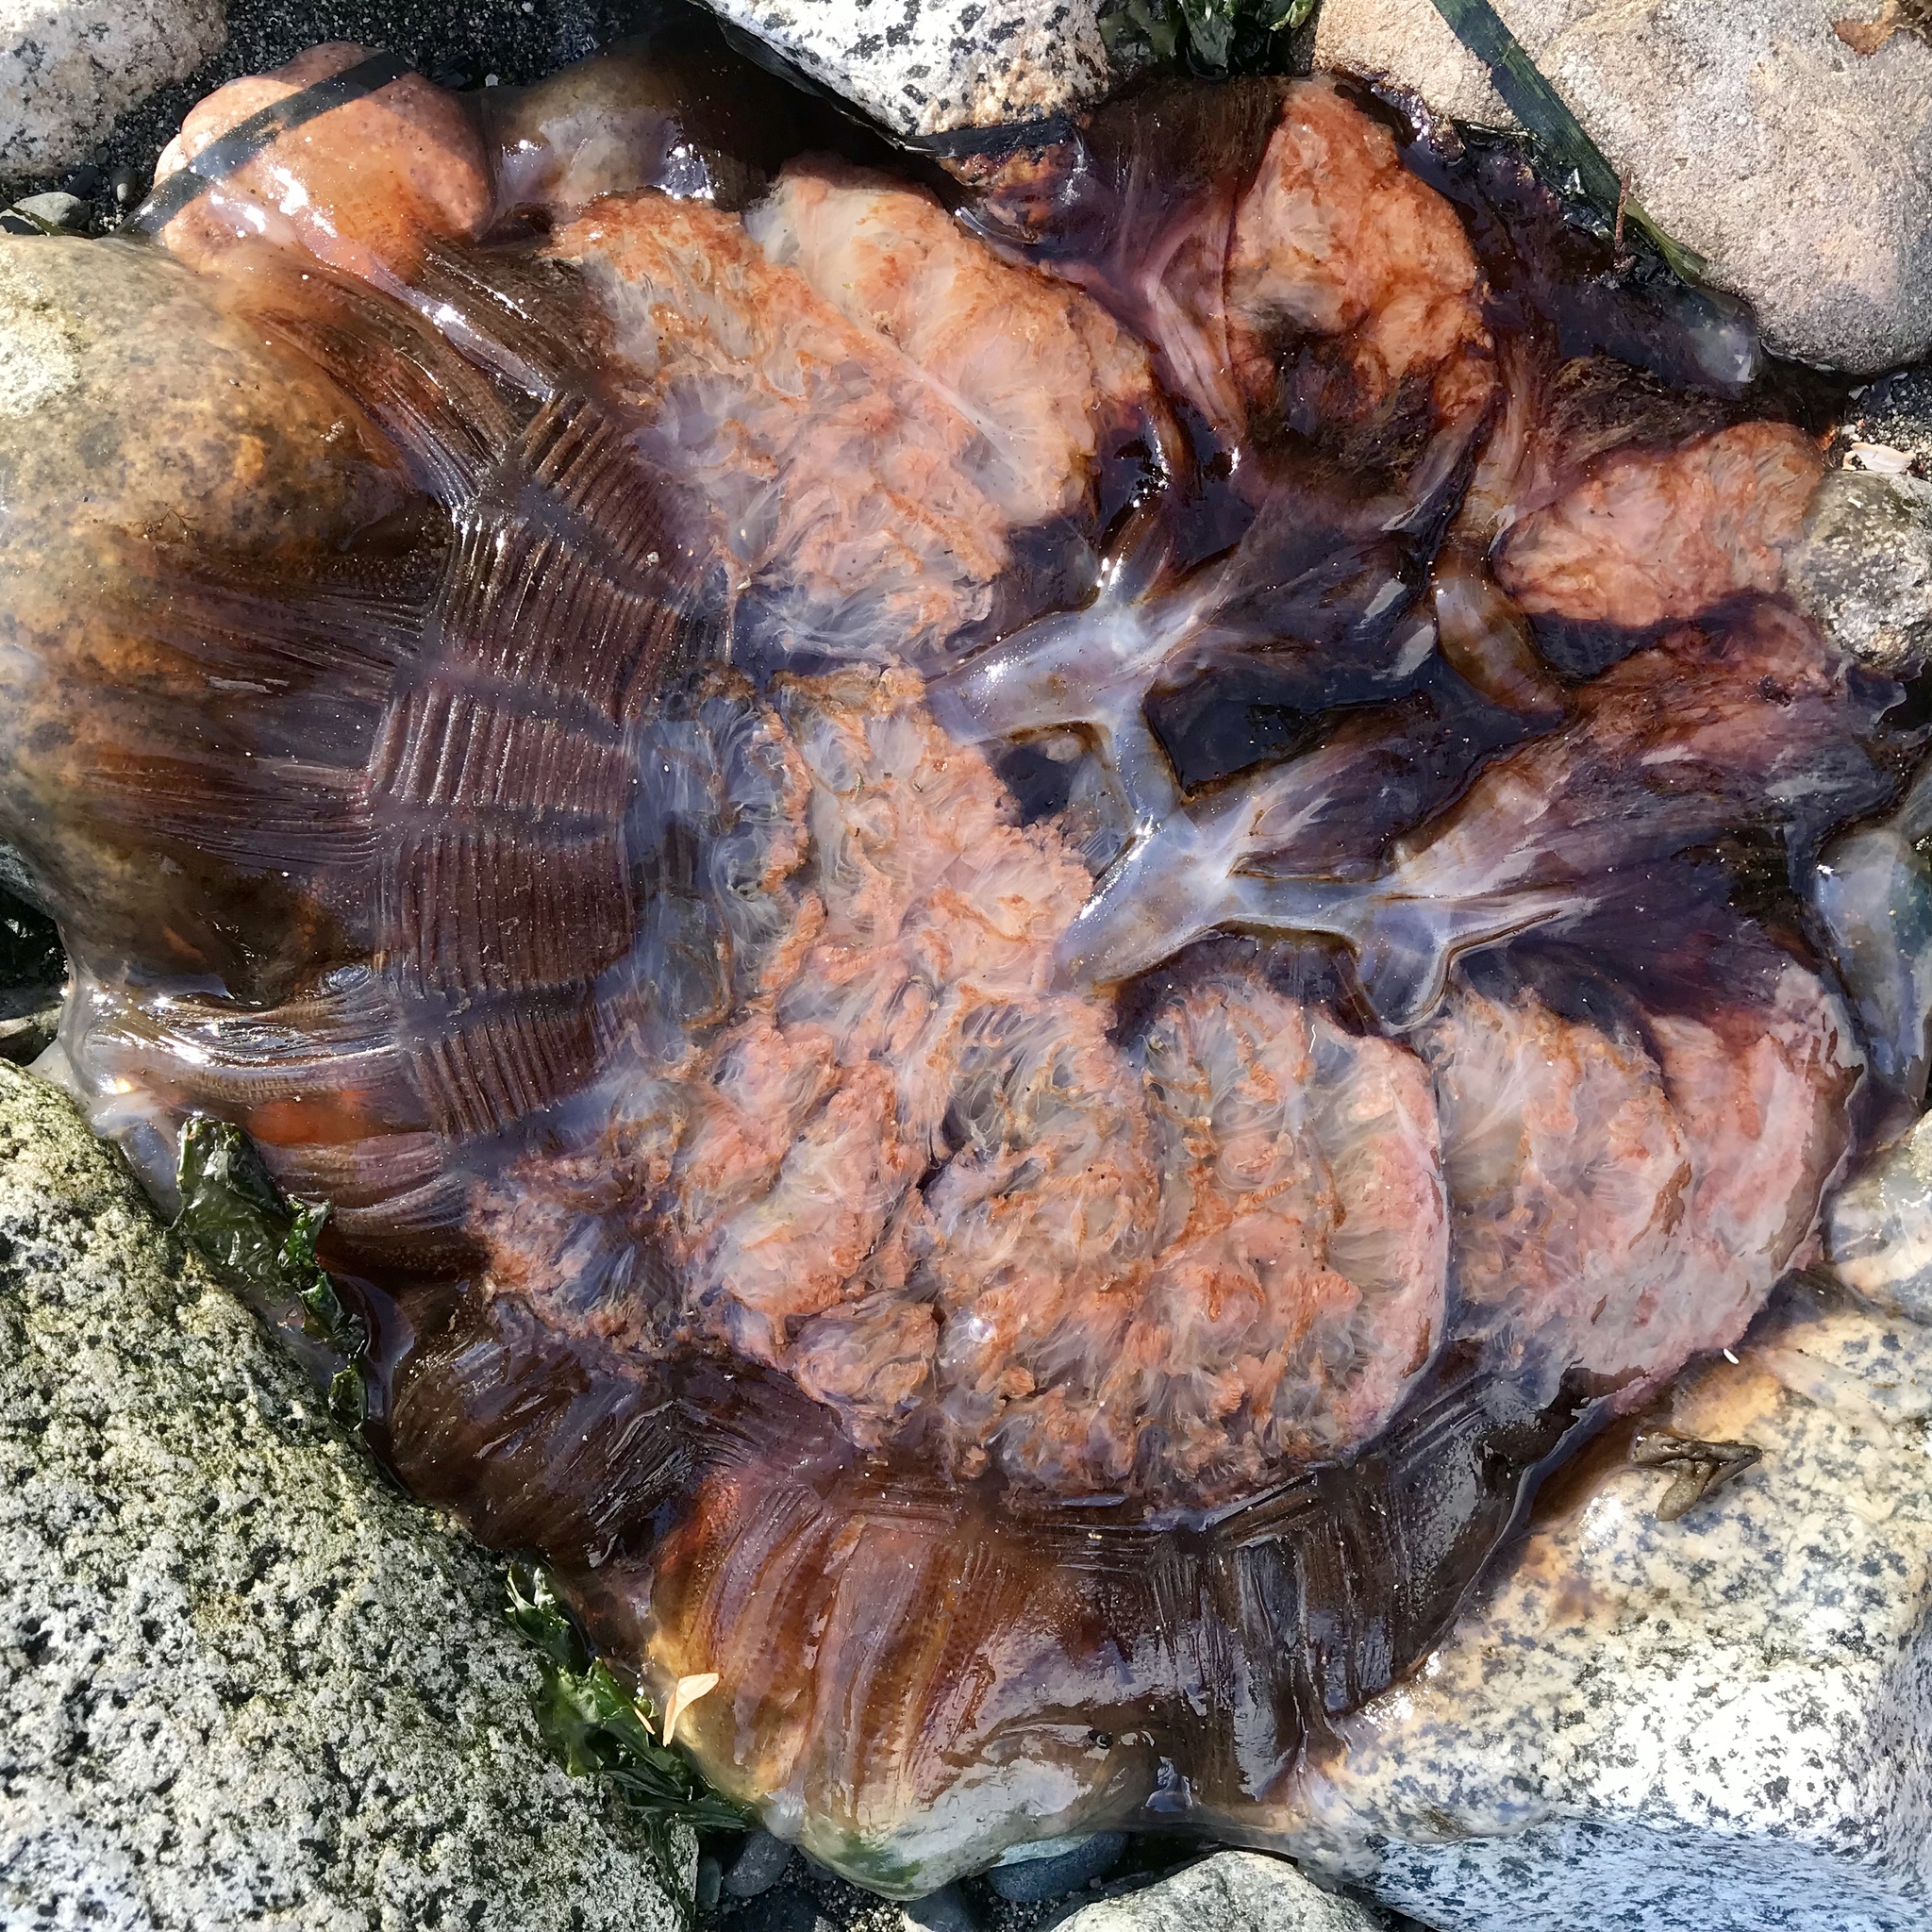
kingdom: Animalia
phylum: Cnidaria
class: Scyphozoa
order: Semaeostomeae
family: Cyaneidae
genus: Cyanea
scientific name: Cyanea ferruginea
